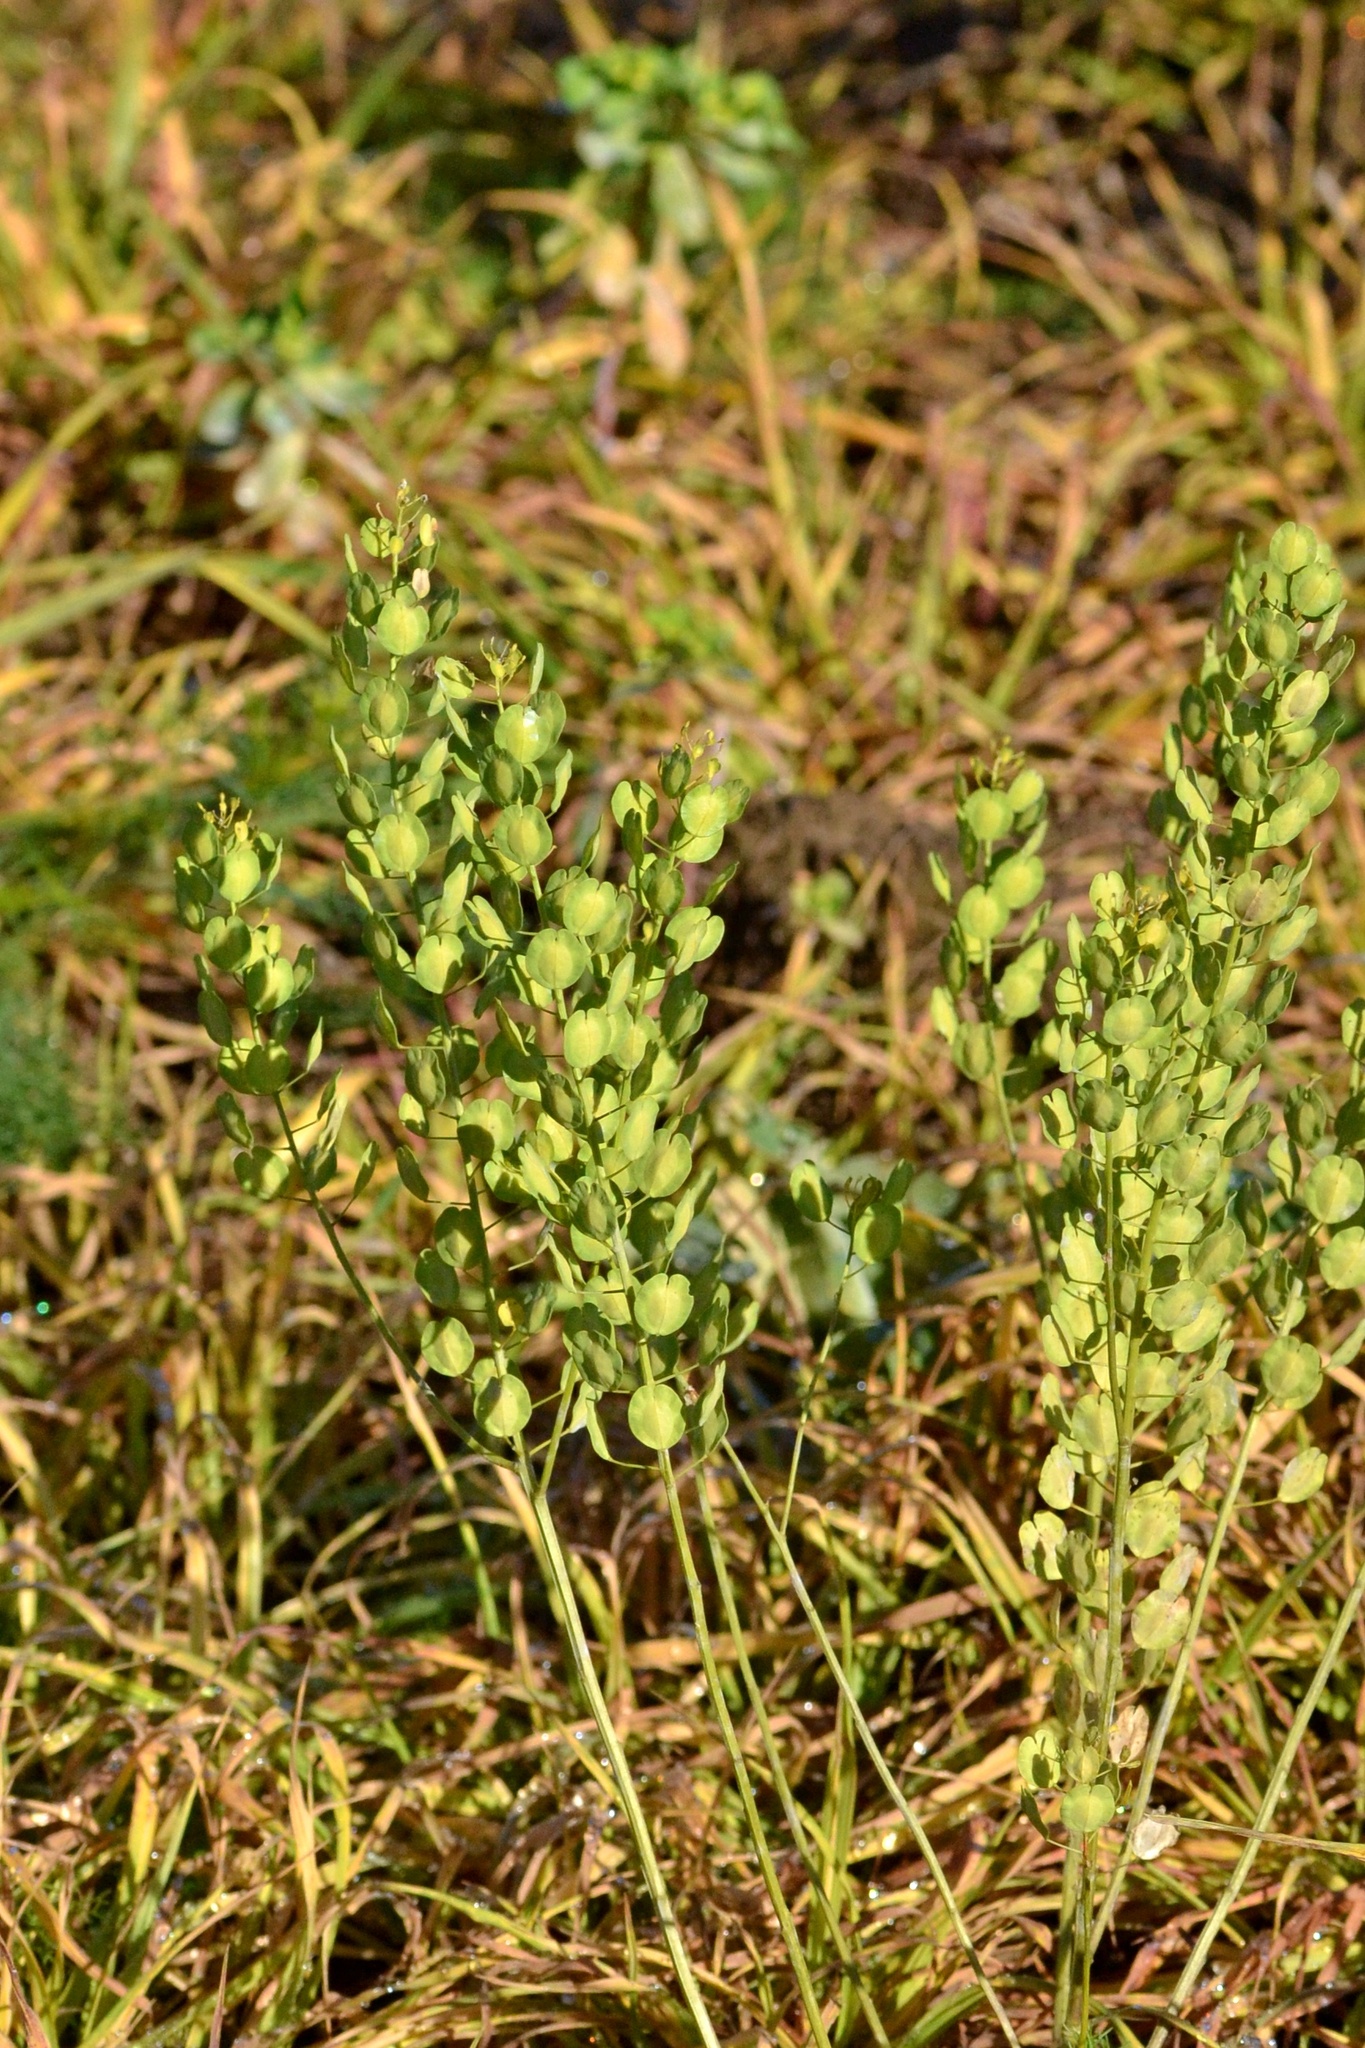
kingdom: Plantae
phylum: Tracheophyta
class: Magnoliopsida
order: Brassicales
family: Brassicaceae
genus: Thlaspi
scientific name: Thlaspi arvense
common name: Field pennycress
